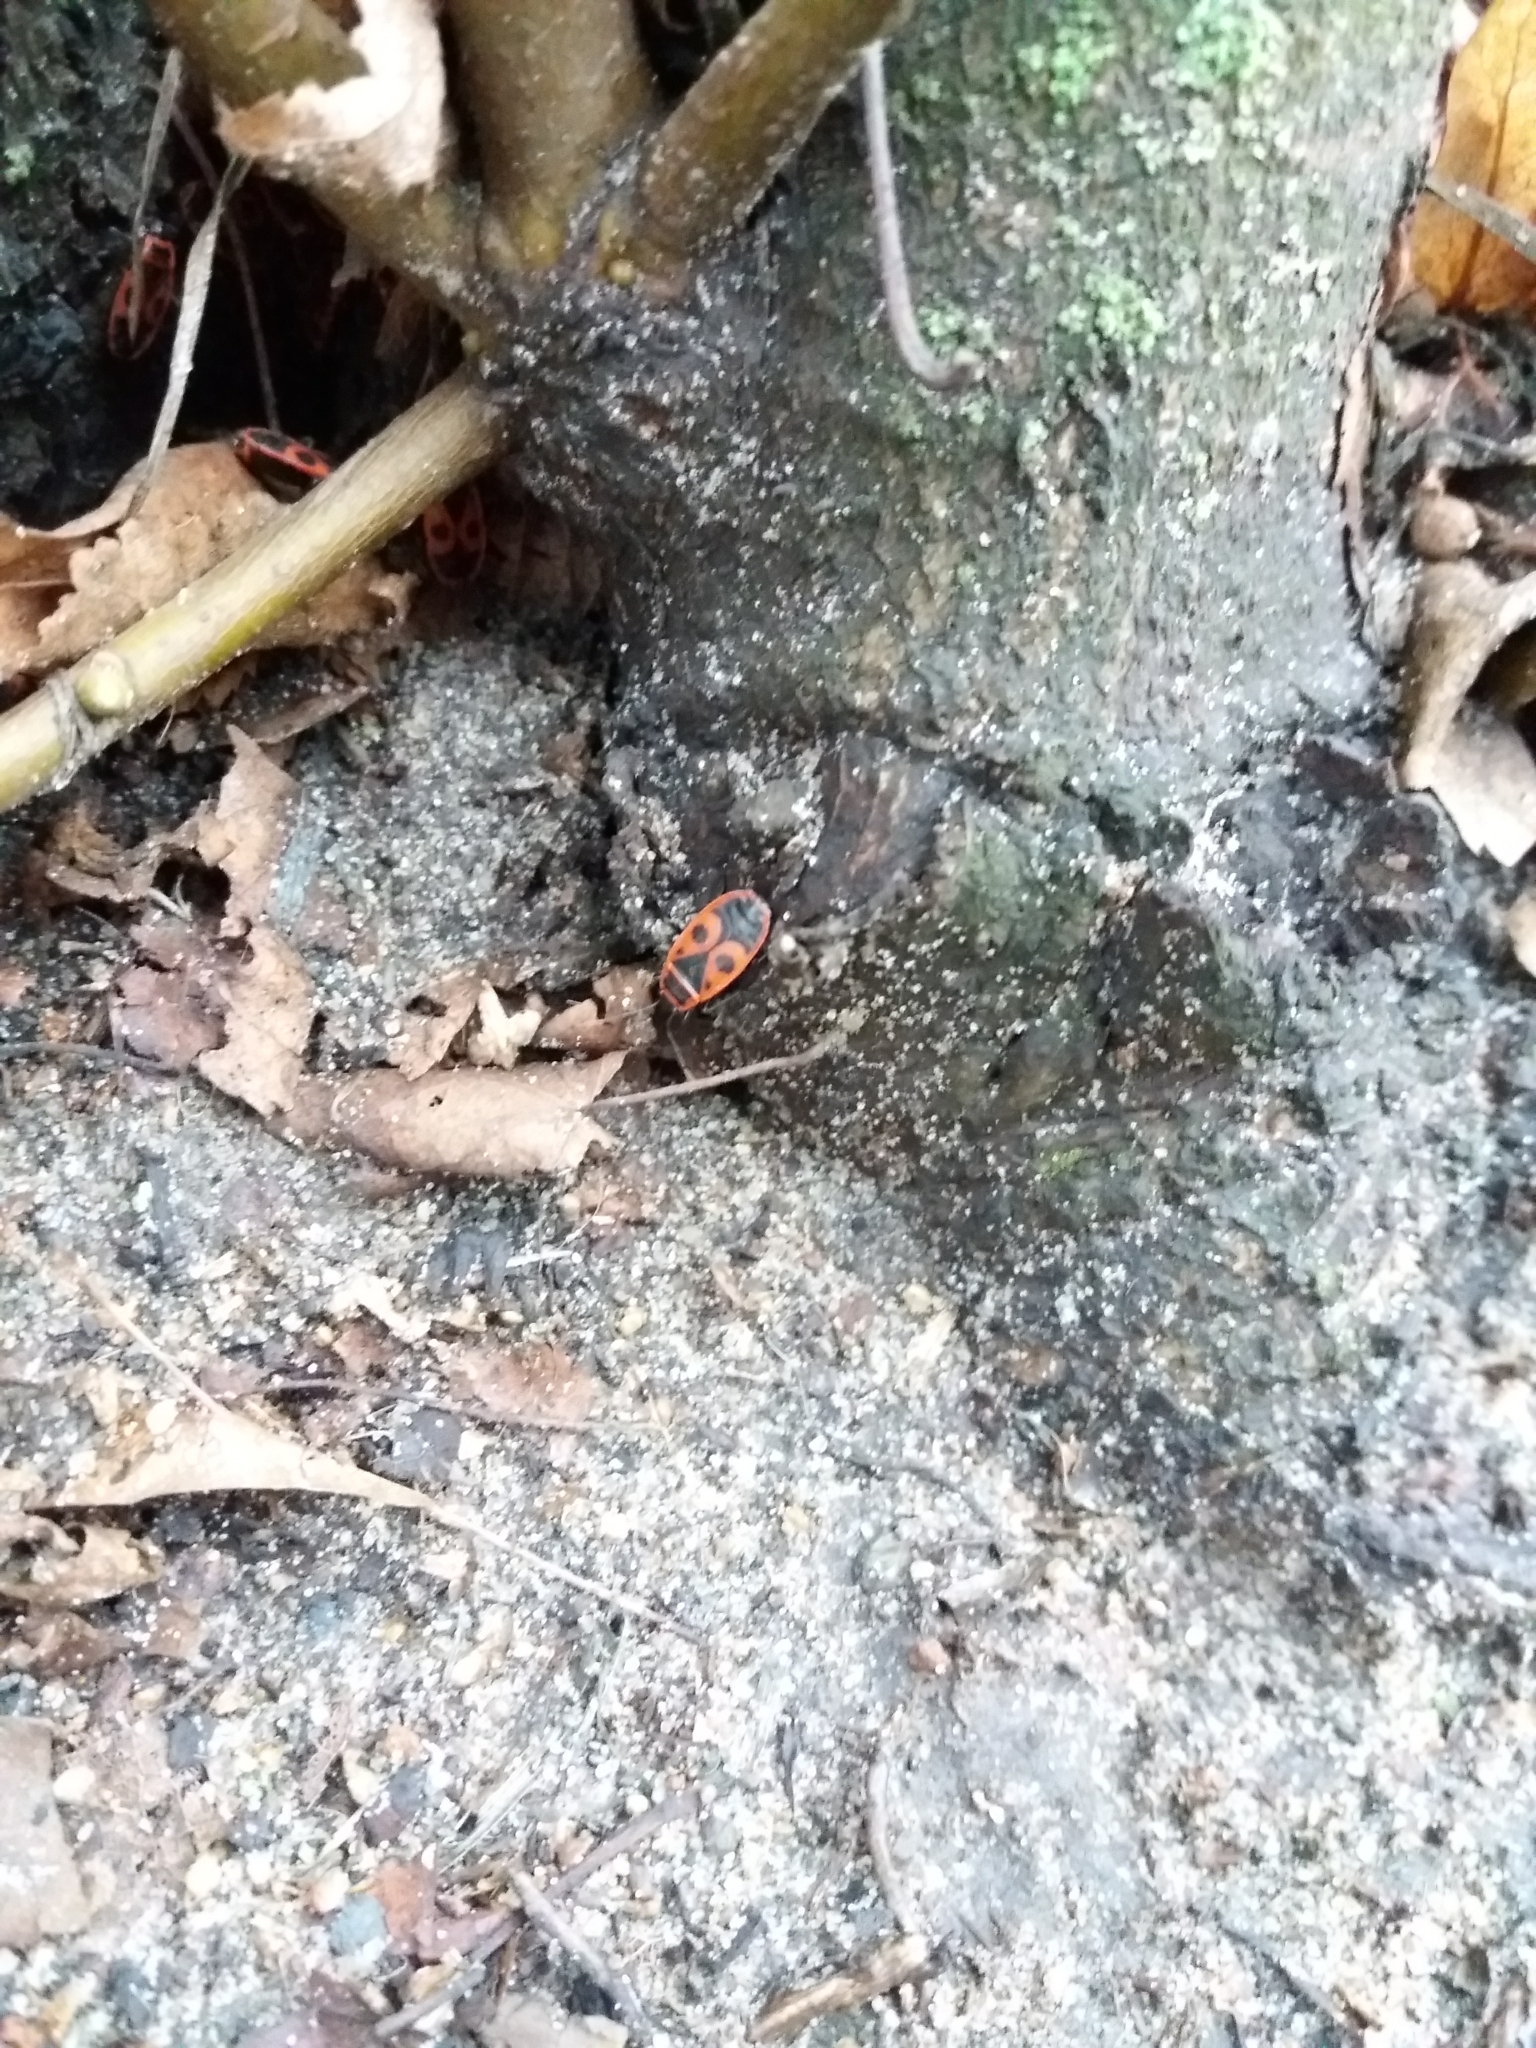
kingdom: Animalia
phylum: Arthropoda
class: Insecta
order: Hemiptera
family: Pyrrhocoridae
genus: Pyrrhocoris
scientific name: Pyrrhocoris apterus
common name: Firebug
